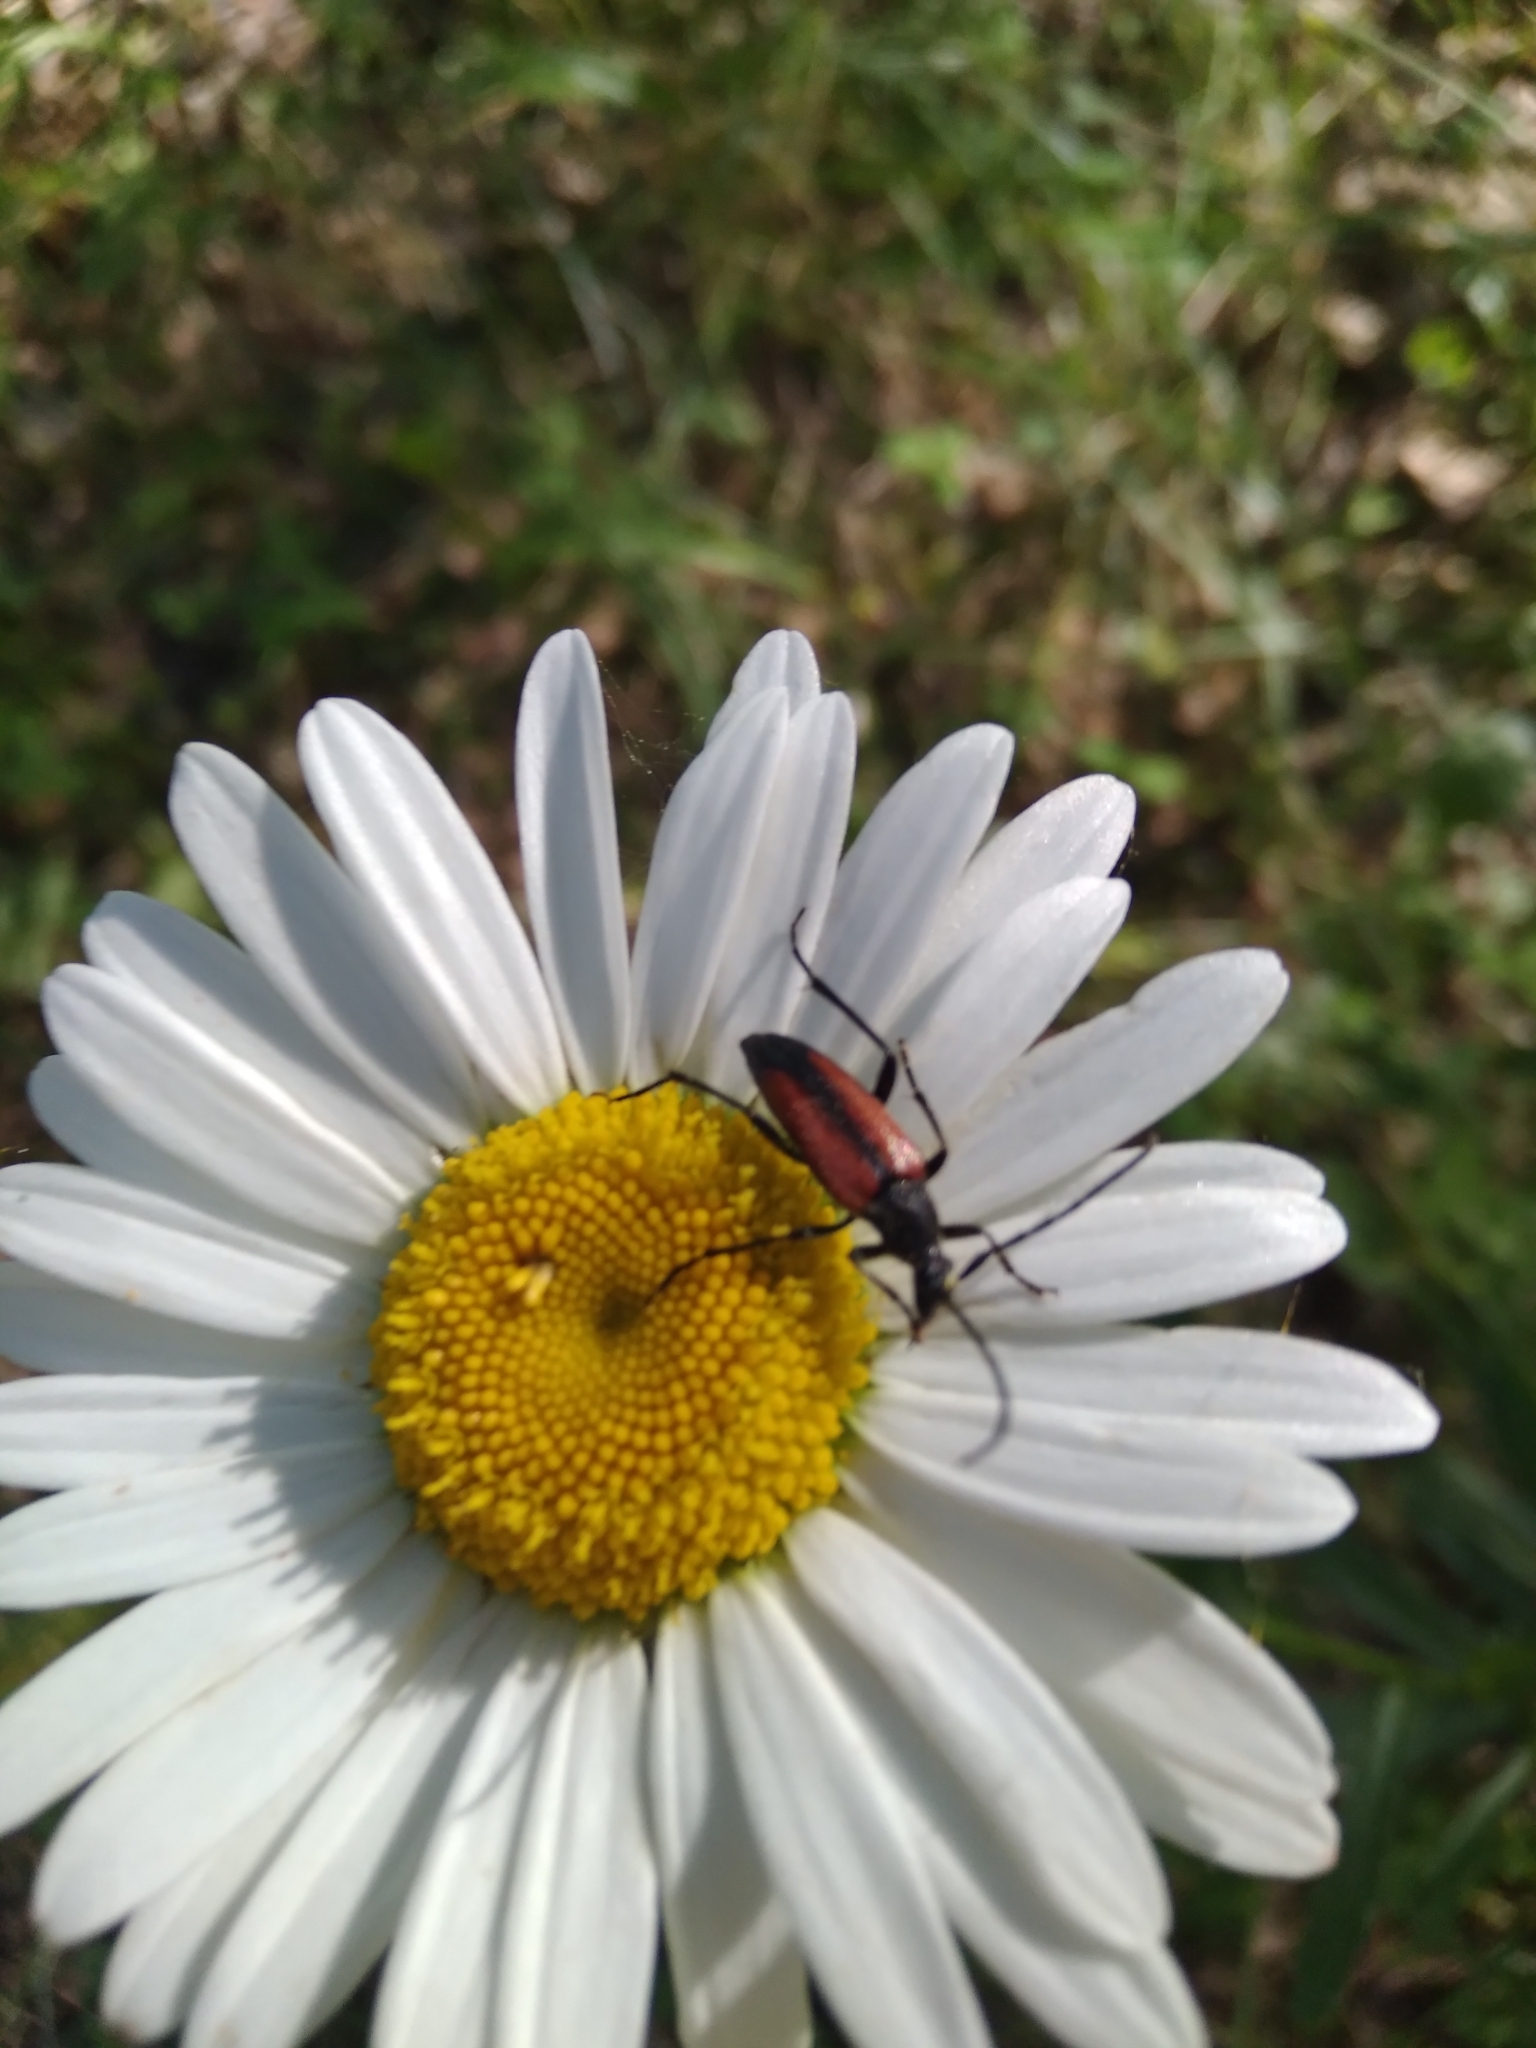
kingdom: Animalia
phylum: Arthropoda
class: Insecta
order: Coleoptera
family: Cerambycidae
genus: Stenurella
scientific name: Stenurella melanura
